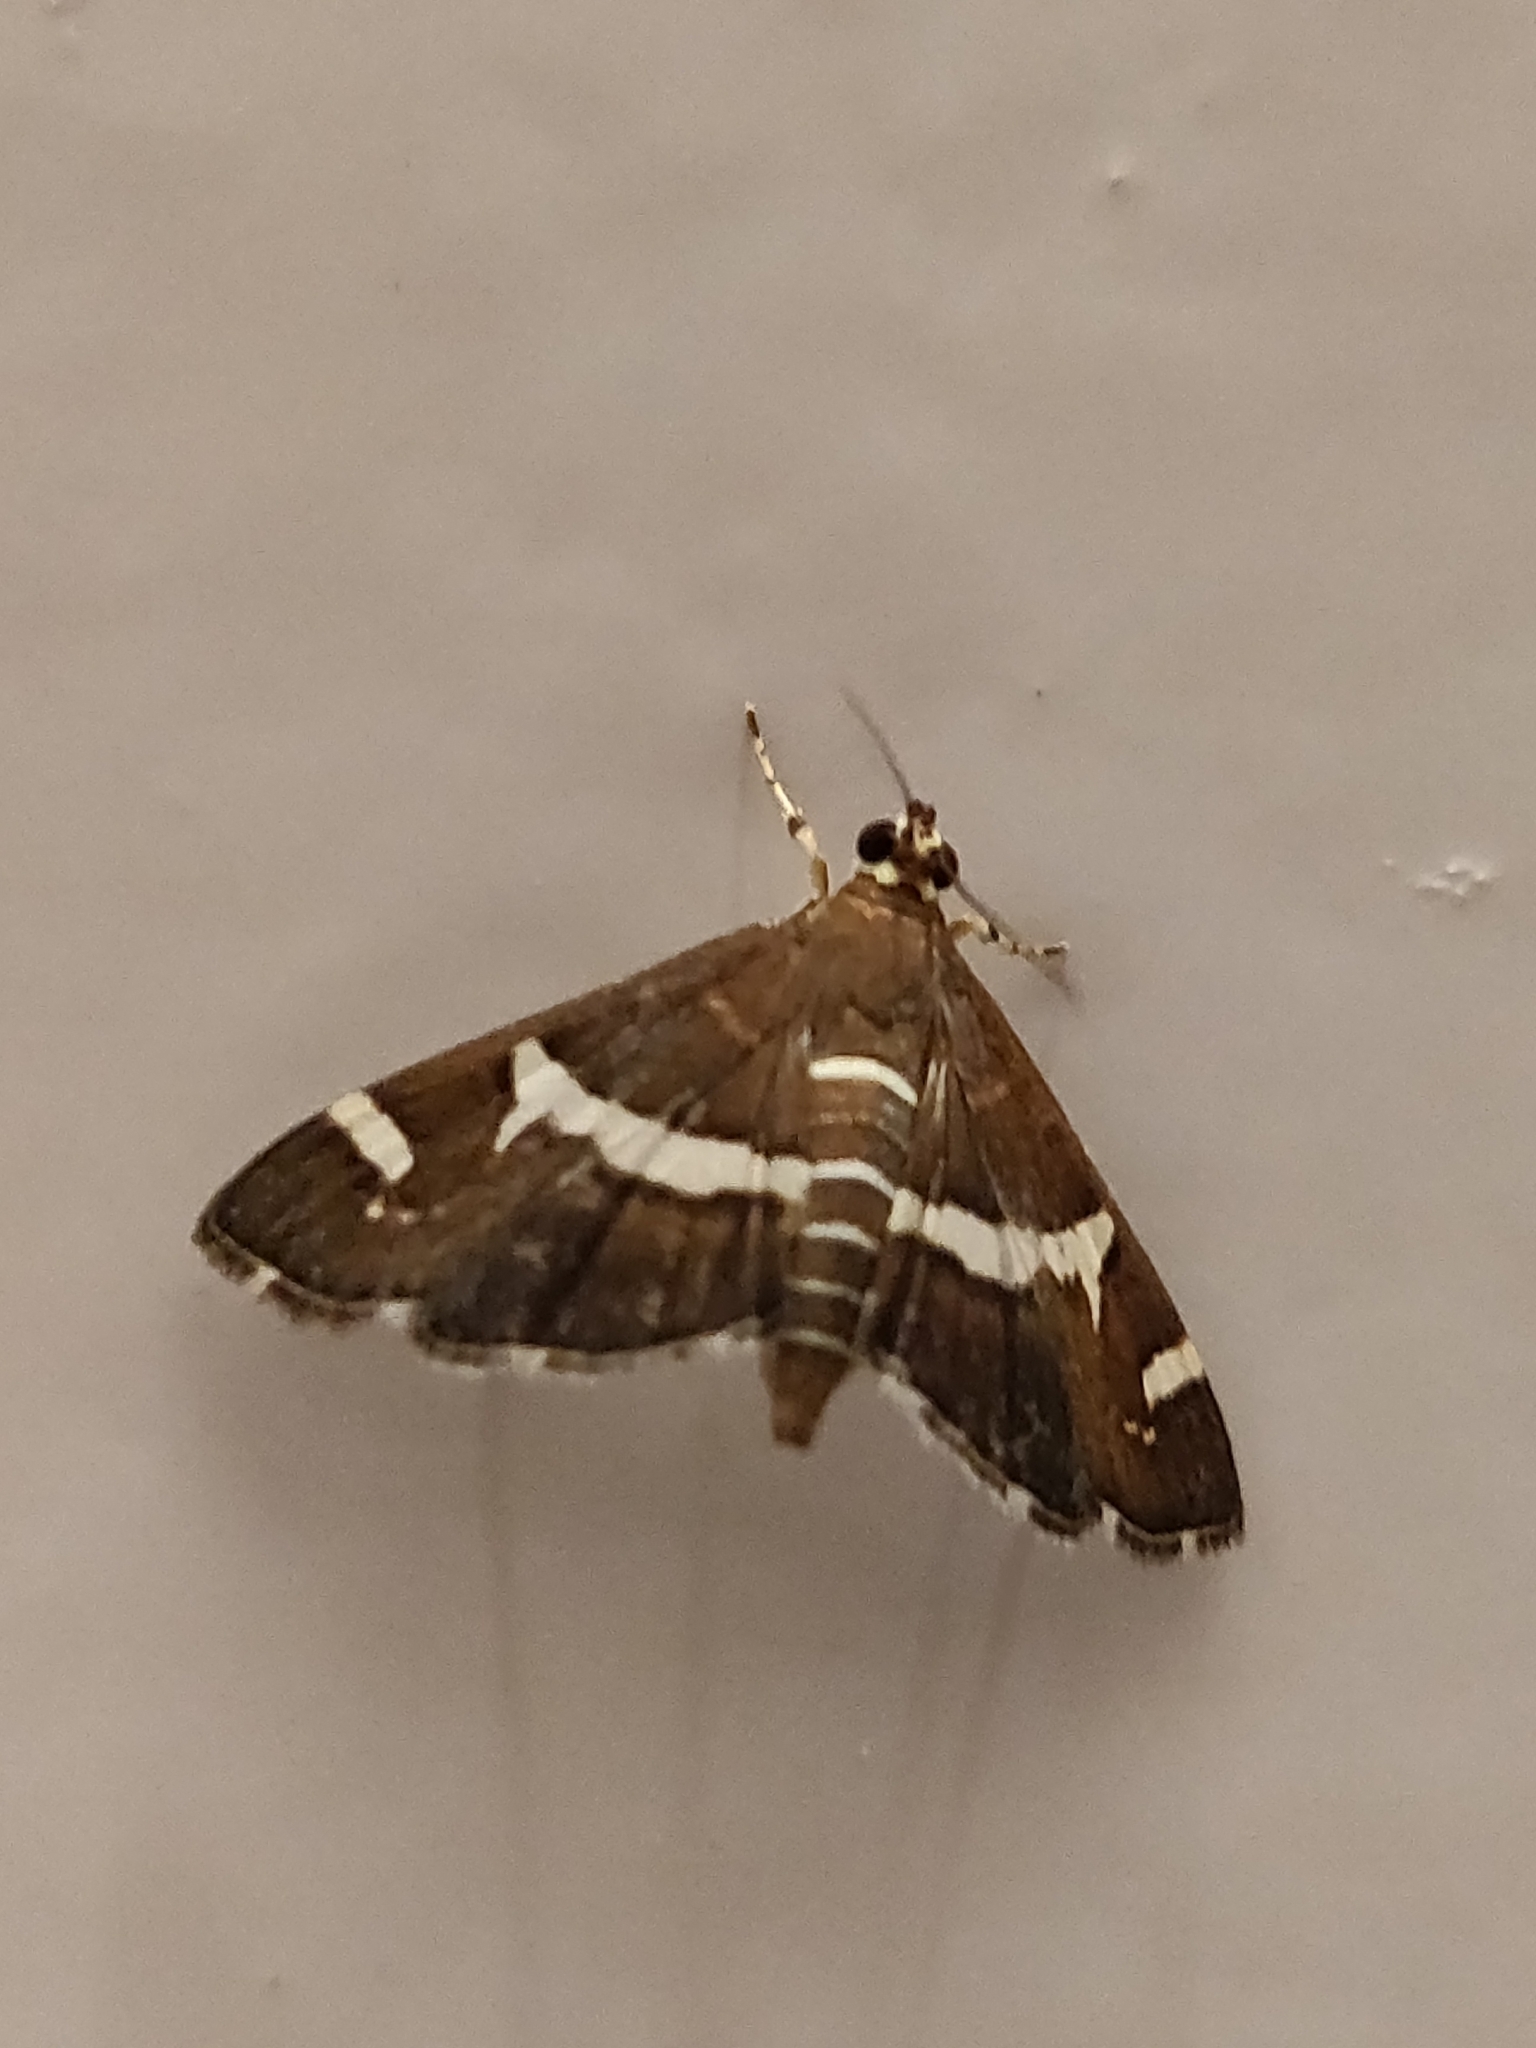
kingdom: Animalia
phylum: Arthropoda
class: Insecta
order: Lepidoptera
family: Crambidae
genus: Spoladea
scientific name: Spoladea recurvalis
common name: Beet webworm moth
